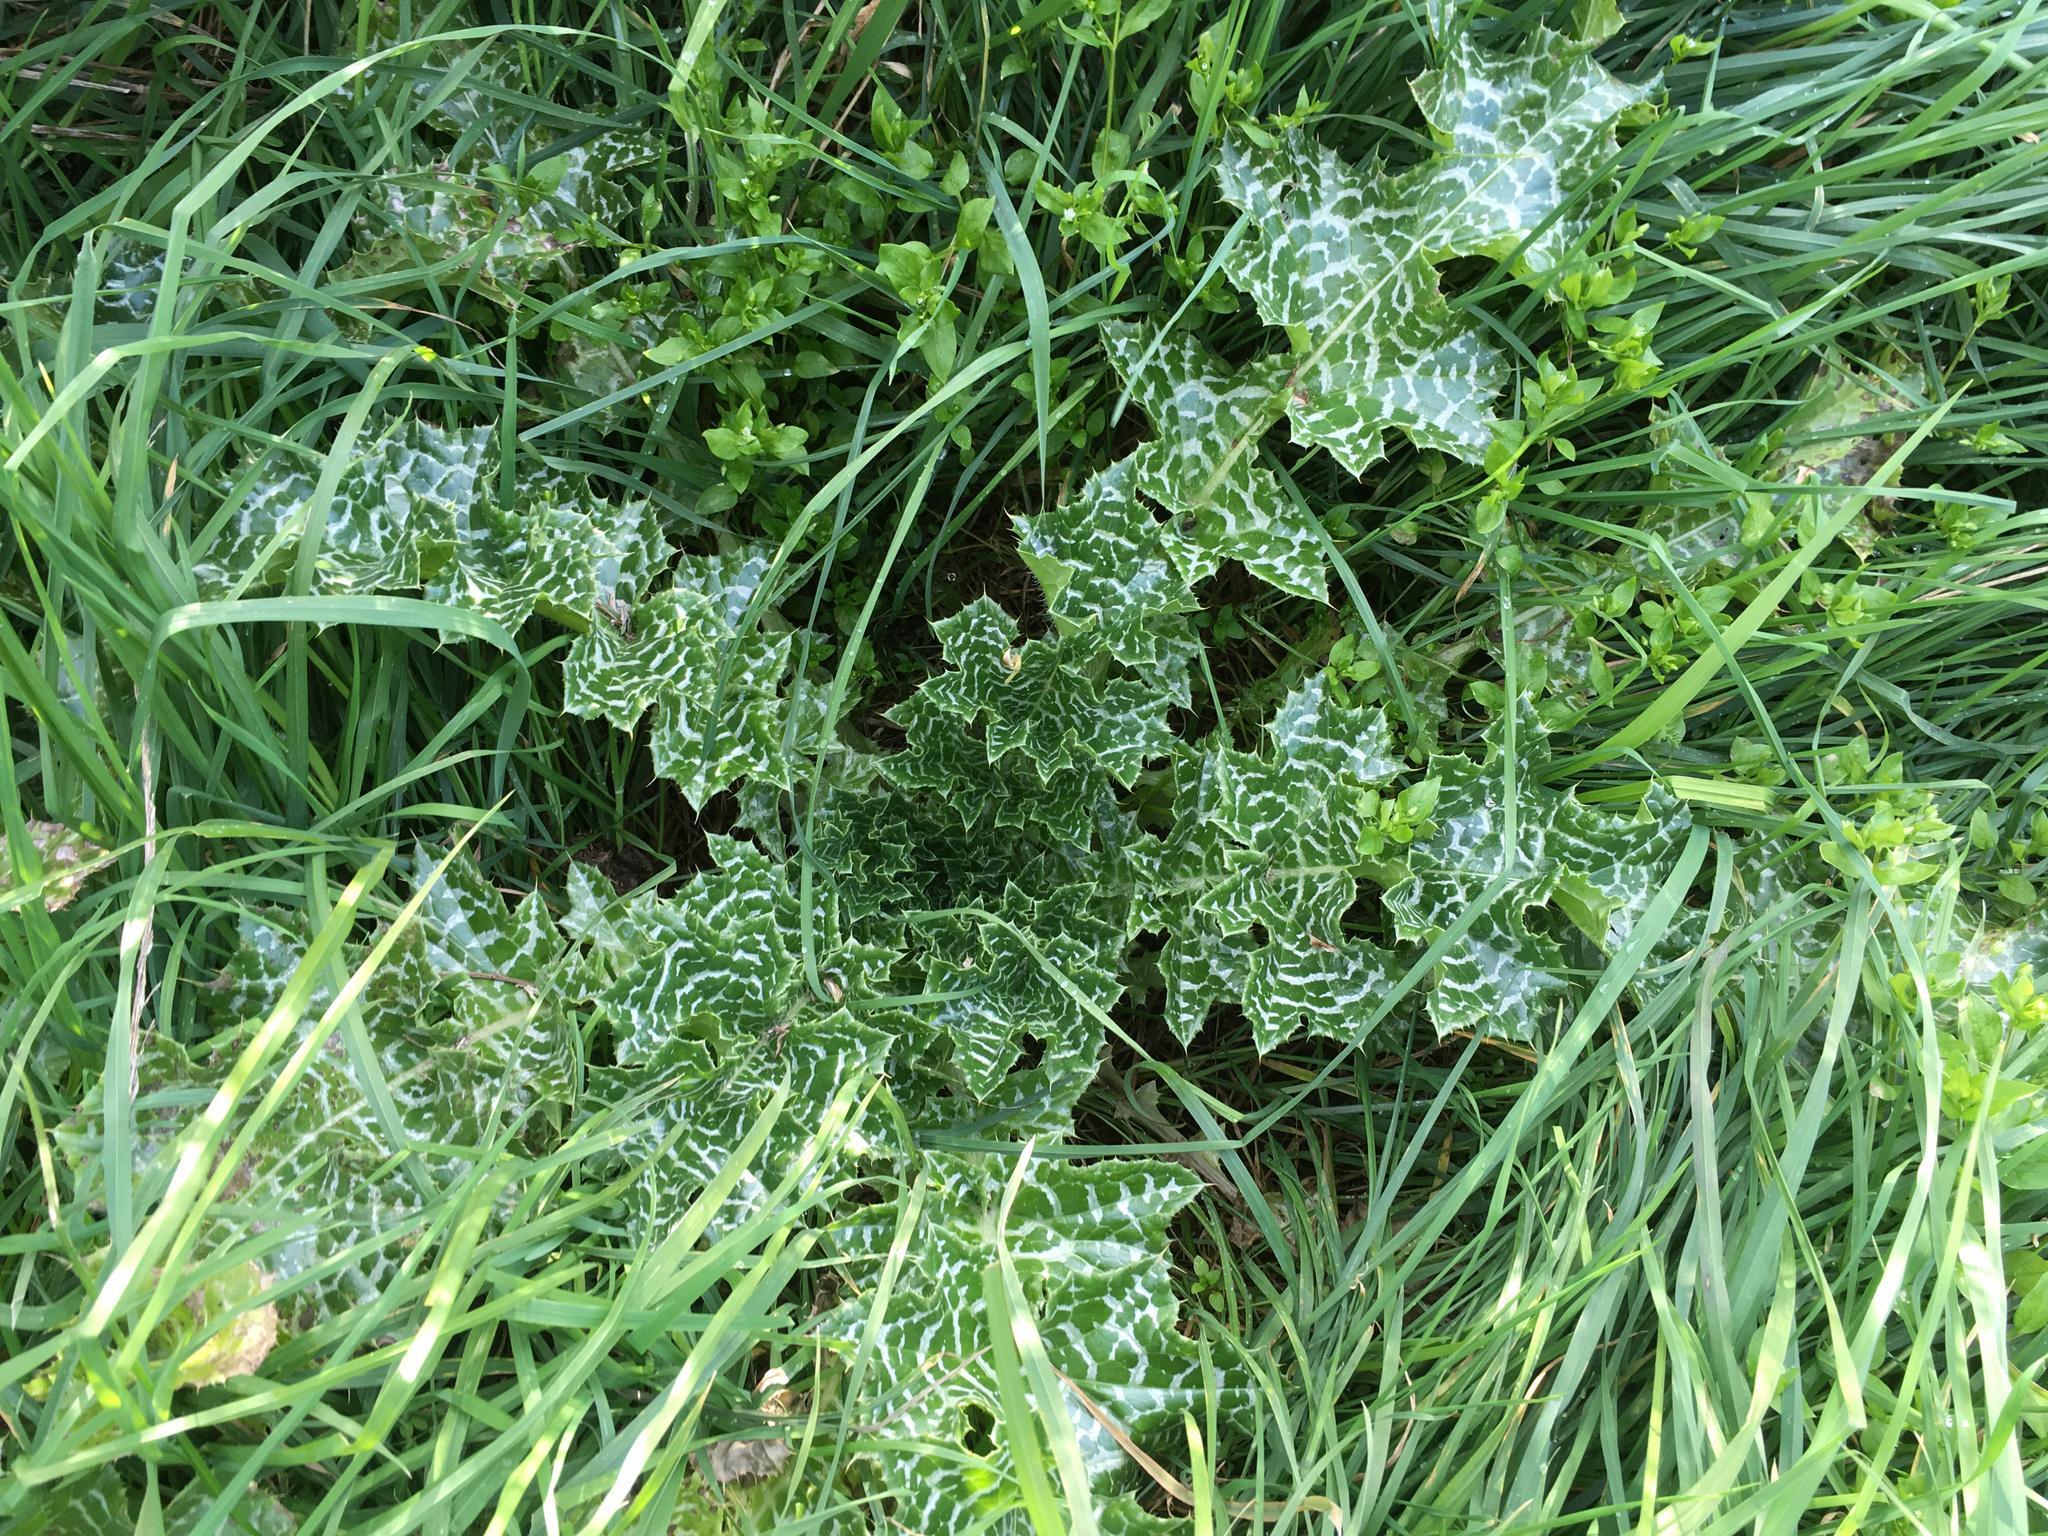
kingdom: Plantae
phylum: Tracheophyta
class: Magnoliopsida
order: Asterales
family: Asteraceae
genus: Silybum
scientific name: Silybum marianum
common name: Milk thistle
